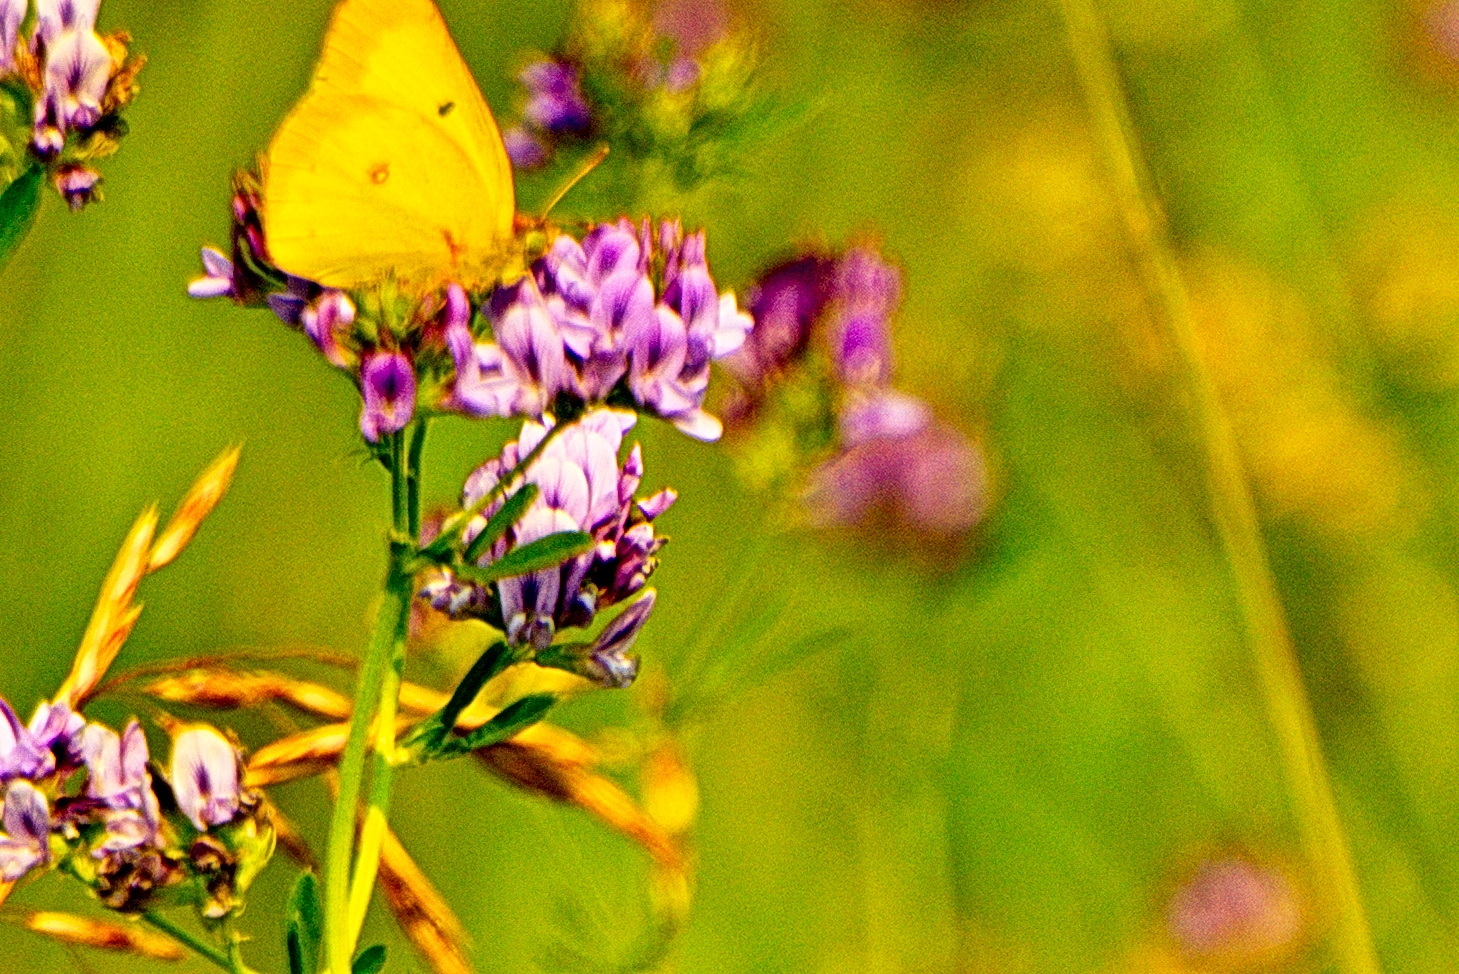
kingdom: Animalia
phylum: Arthropoda
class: Insecta
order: Lepidoptera
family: Pieridae
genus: Colias
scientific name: Colias philodice
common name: Clouded sulphur
